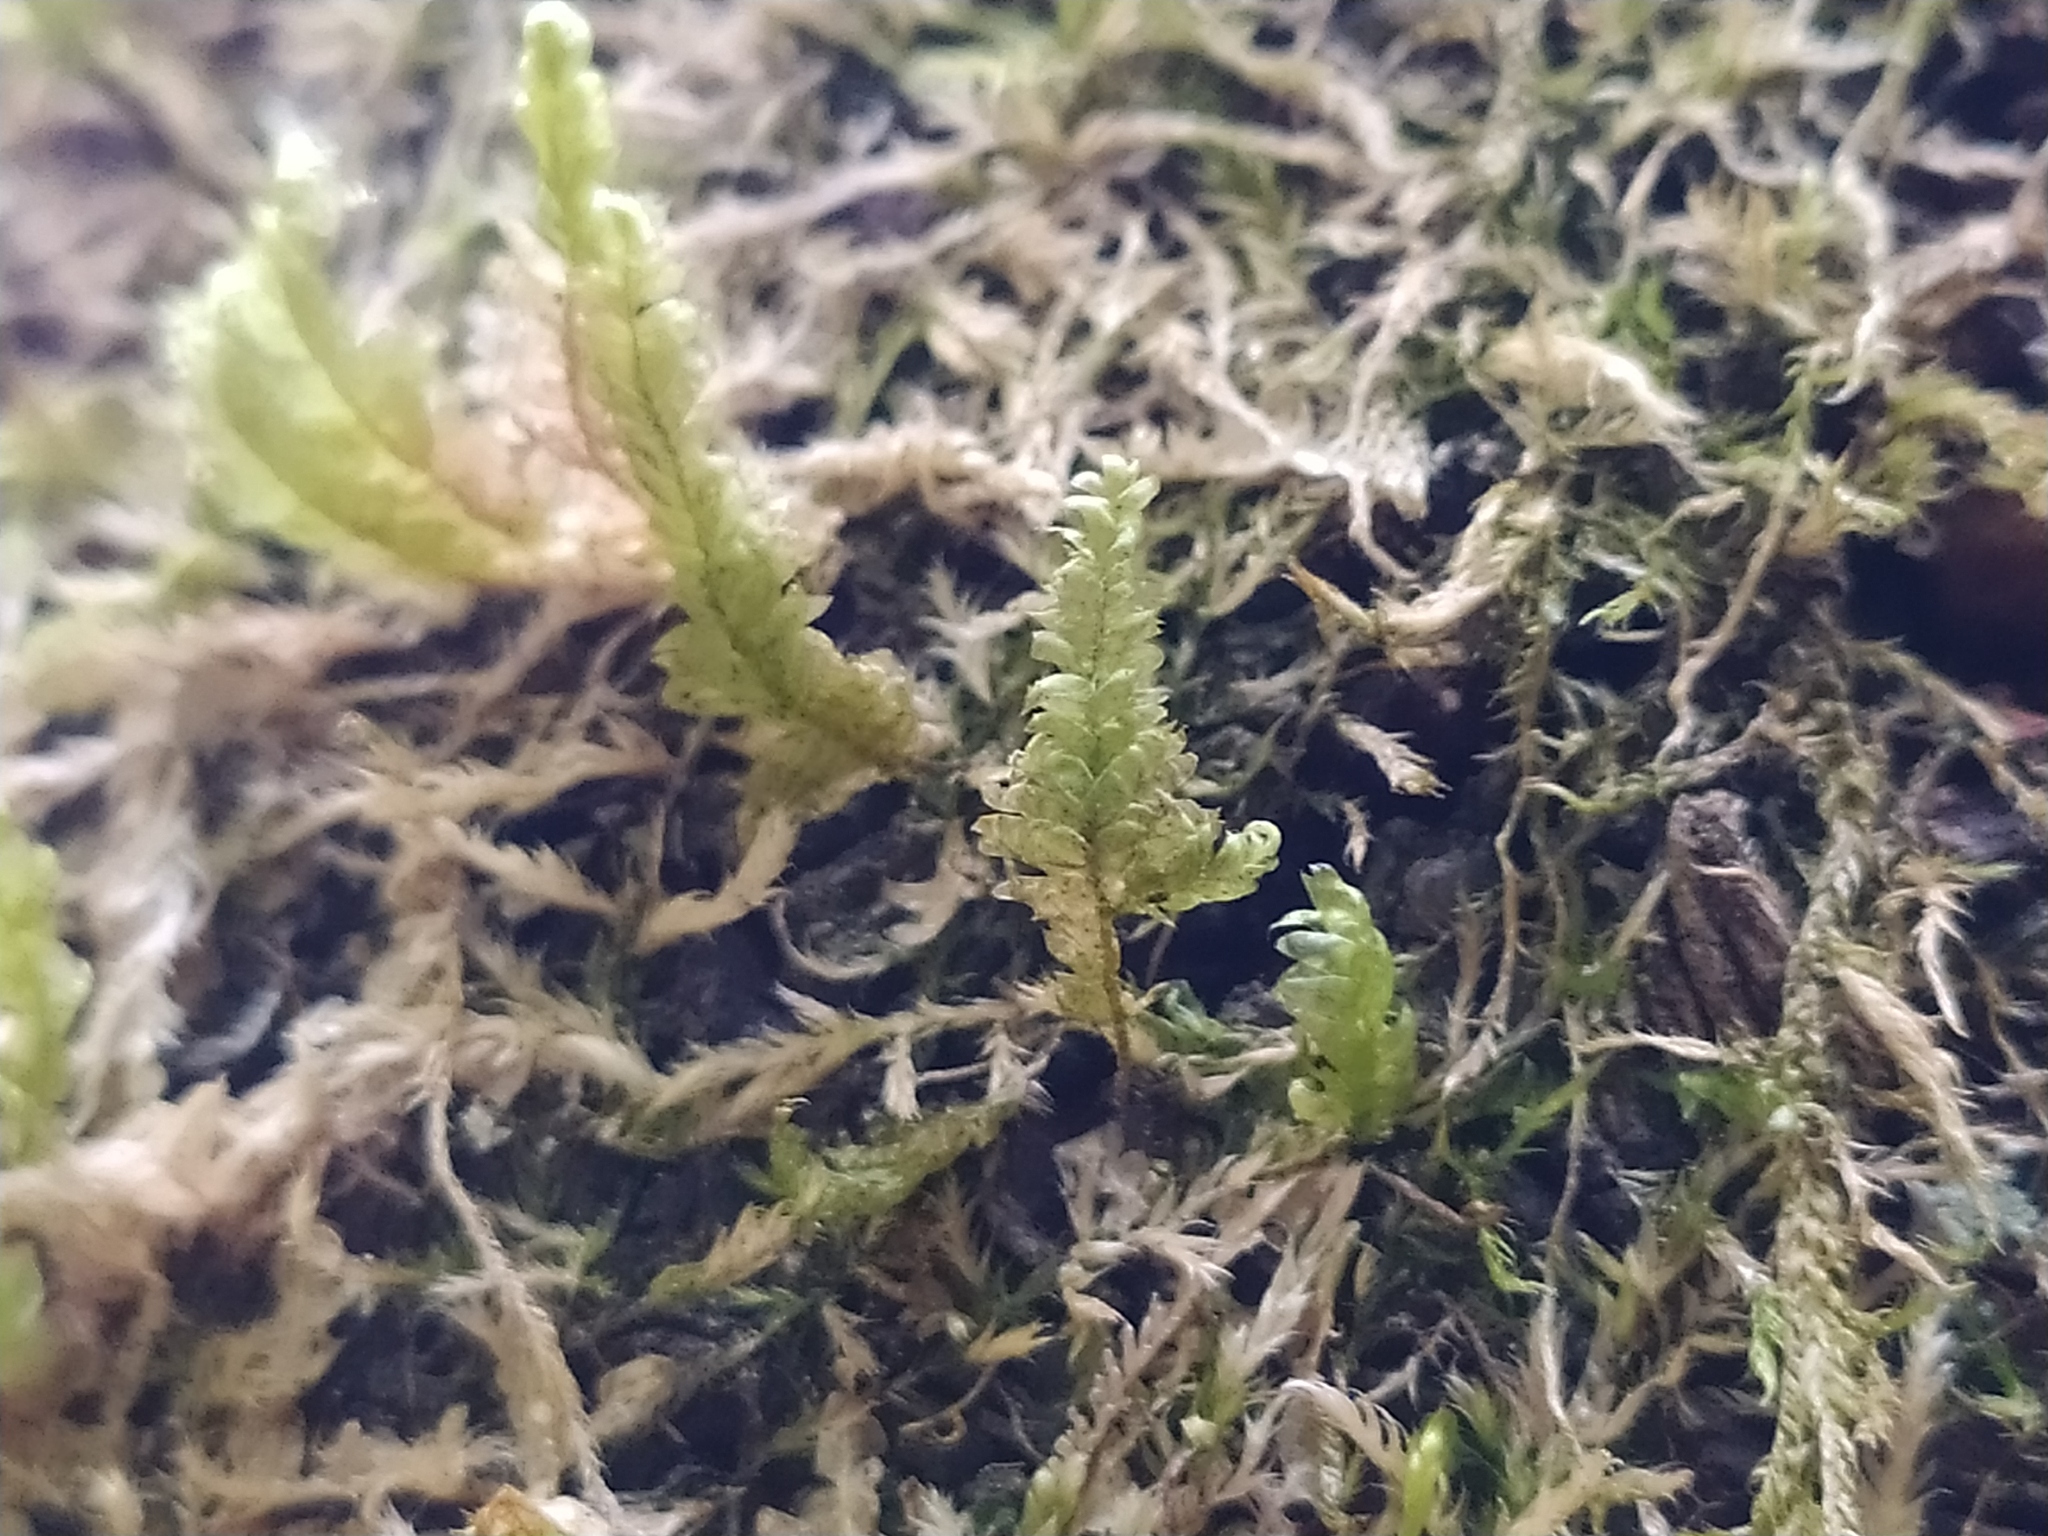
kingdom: Plantae
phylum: Bryophyta
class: Bryopsida
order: Hypnales
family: Neckeraceae
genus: Exsertotheca
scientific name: Exsertotheca crispa
